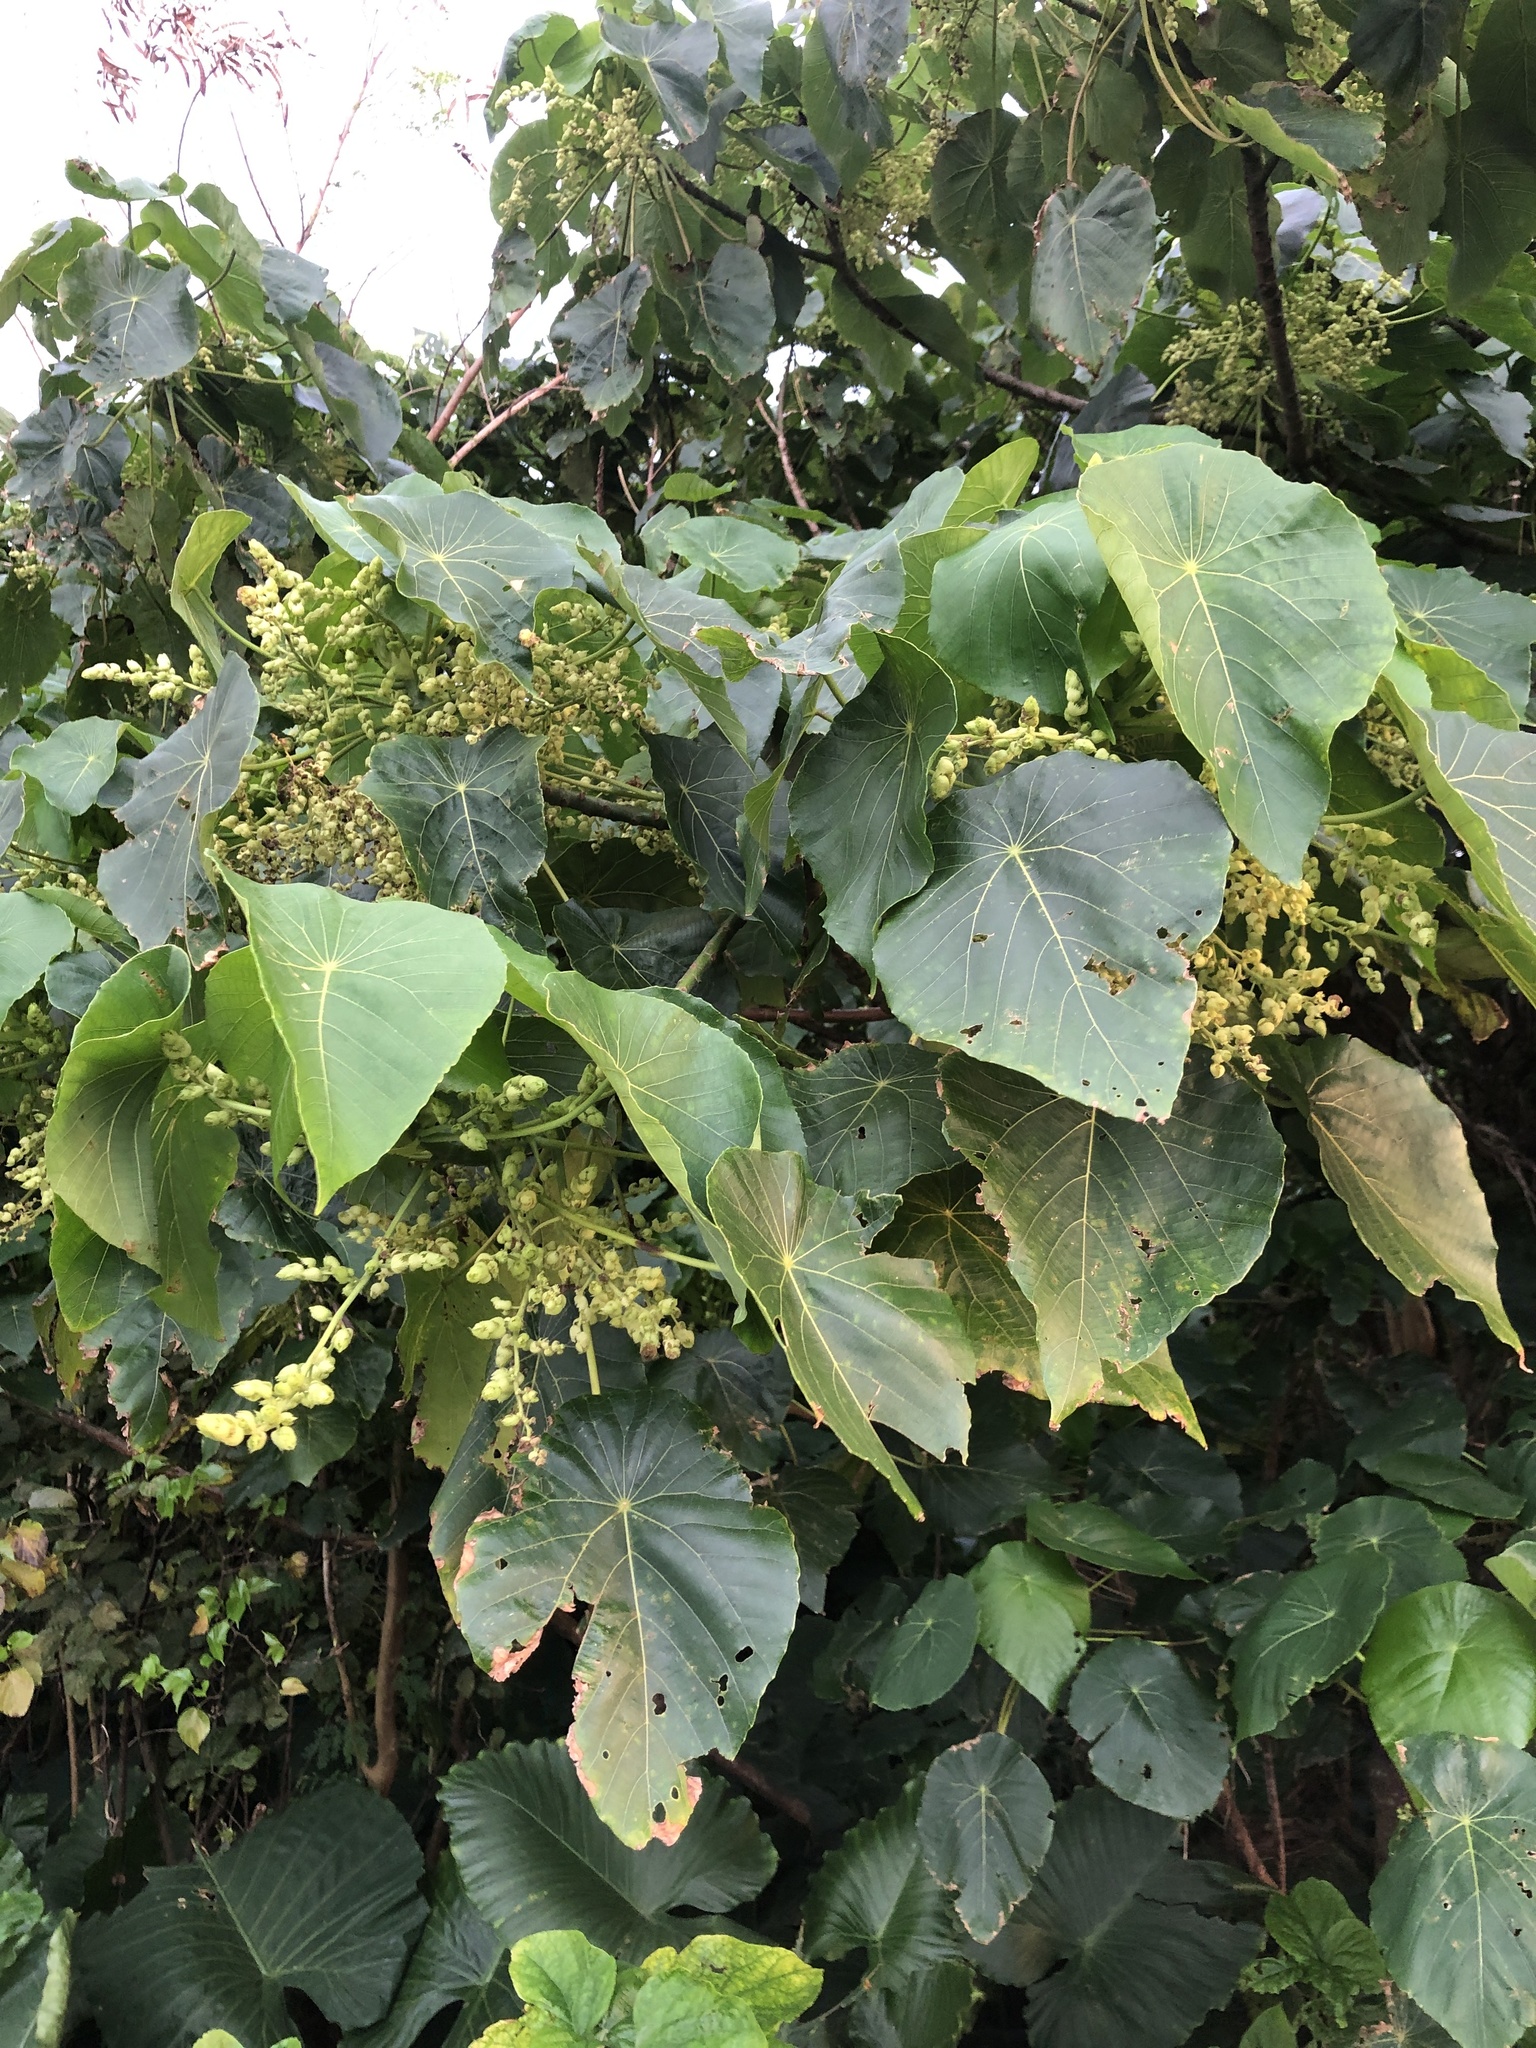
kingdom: Plantae
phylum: Tracheophyta
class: Magnoliopsida
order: Malpighiales
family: Euphorbiaceae
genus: Macaranga
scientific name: Macaranga tanarius
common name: Parasol leaf tree
